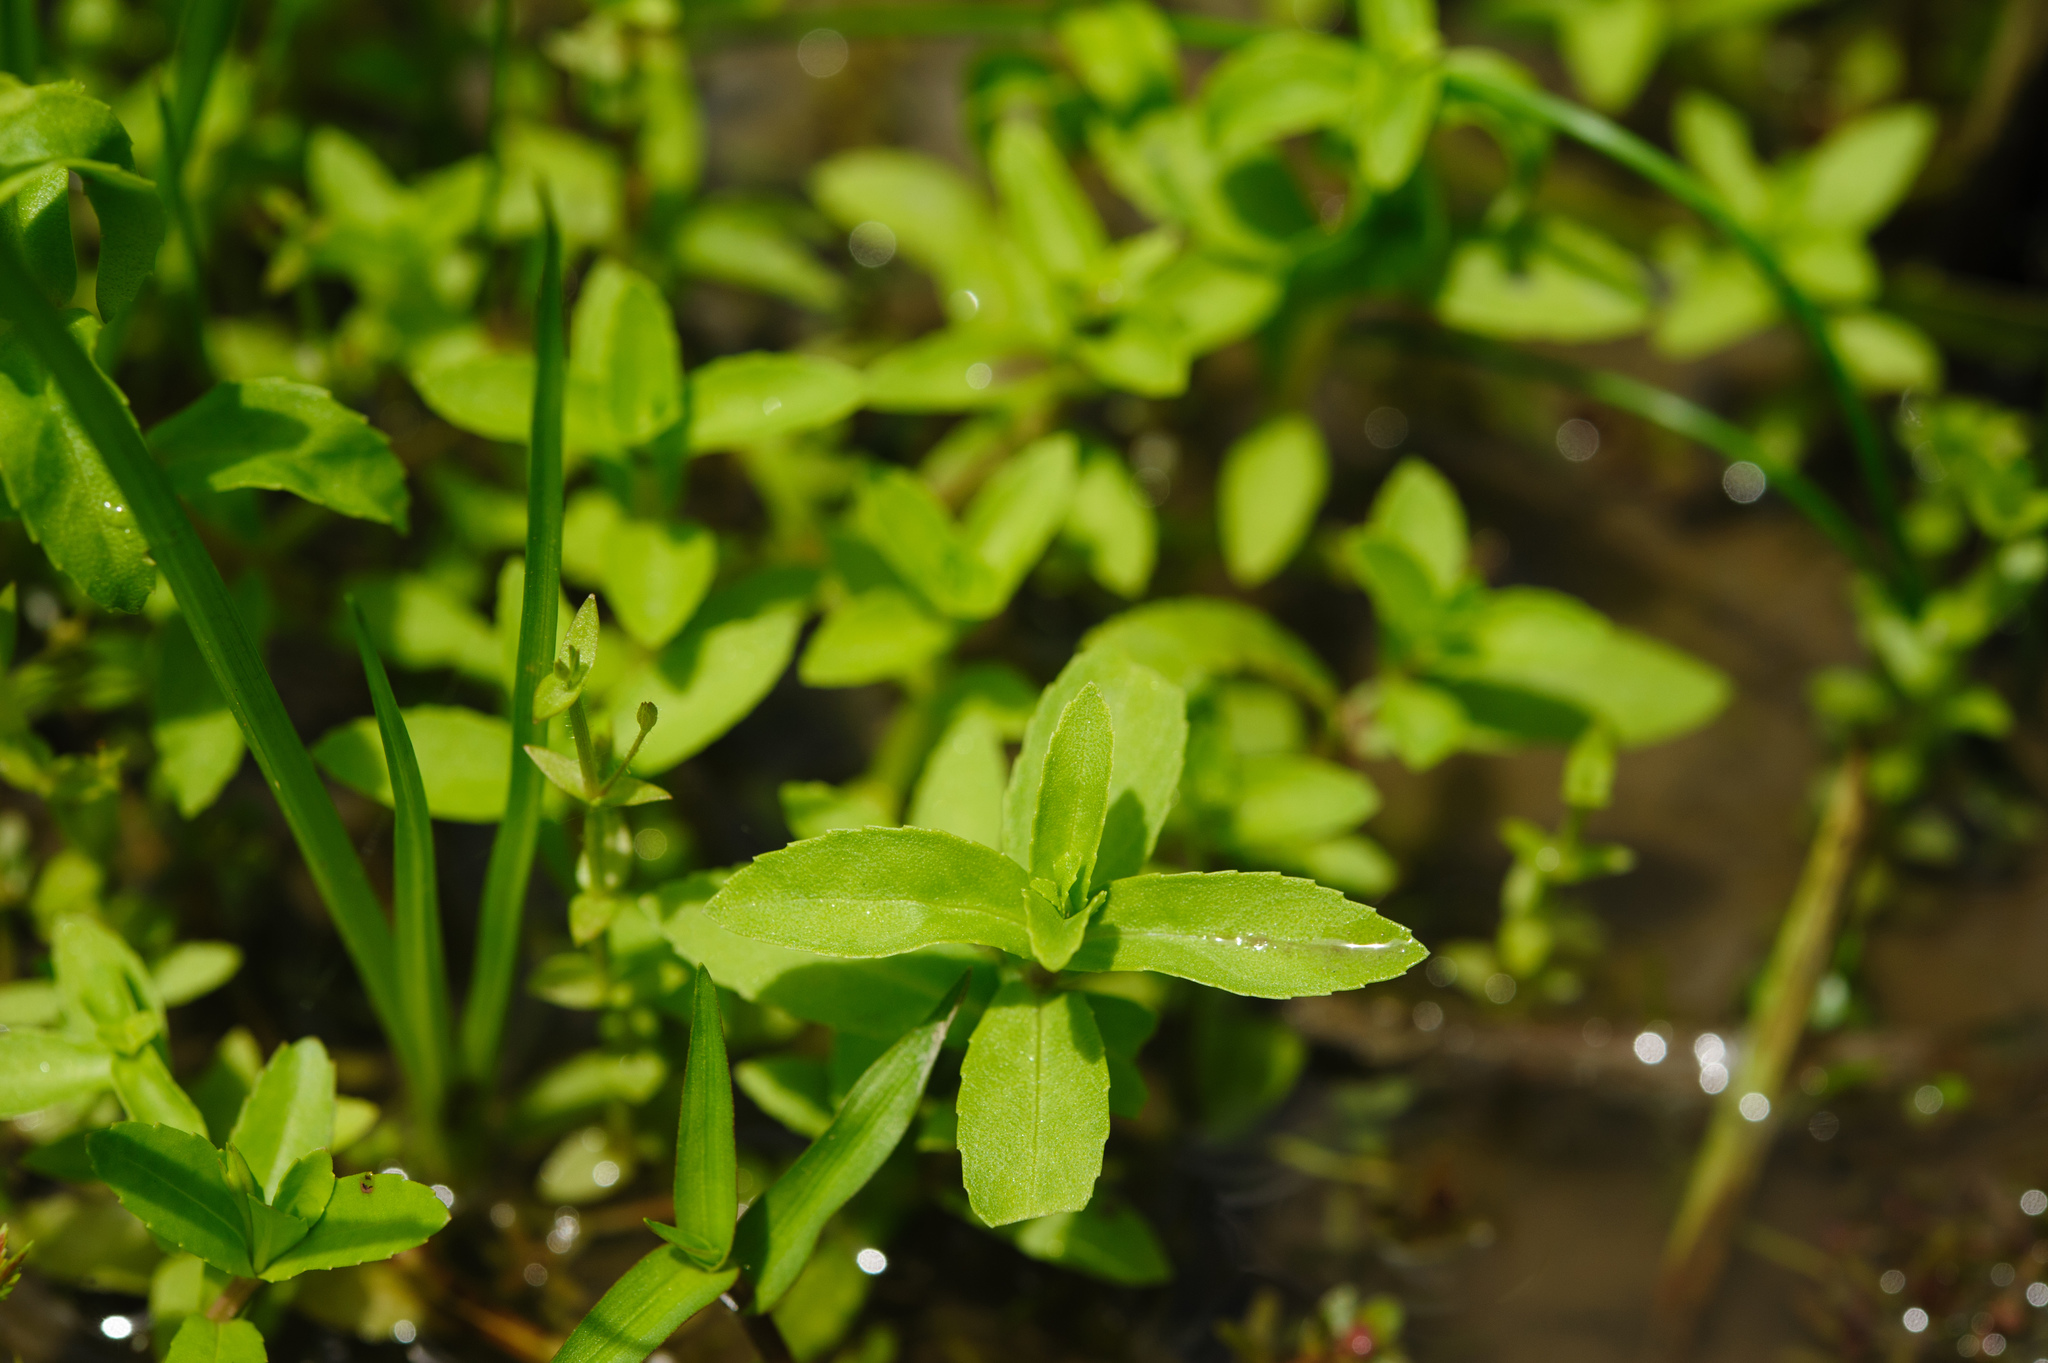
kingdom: Plantae
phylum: Tracheophyta
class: Magnoliopsida
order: Lamiales
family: Linderniaceae
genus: Bonnaya
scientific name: Bonnaya antipoda
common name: Sparrow false pimpernel
